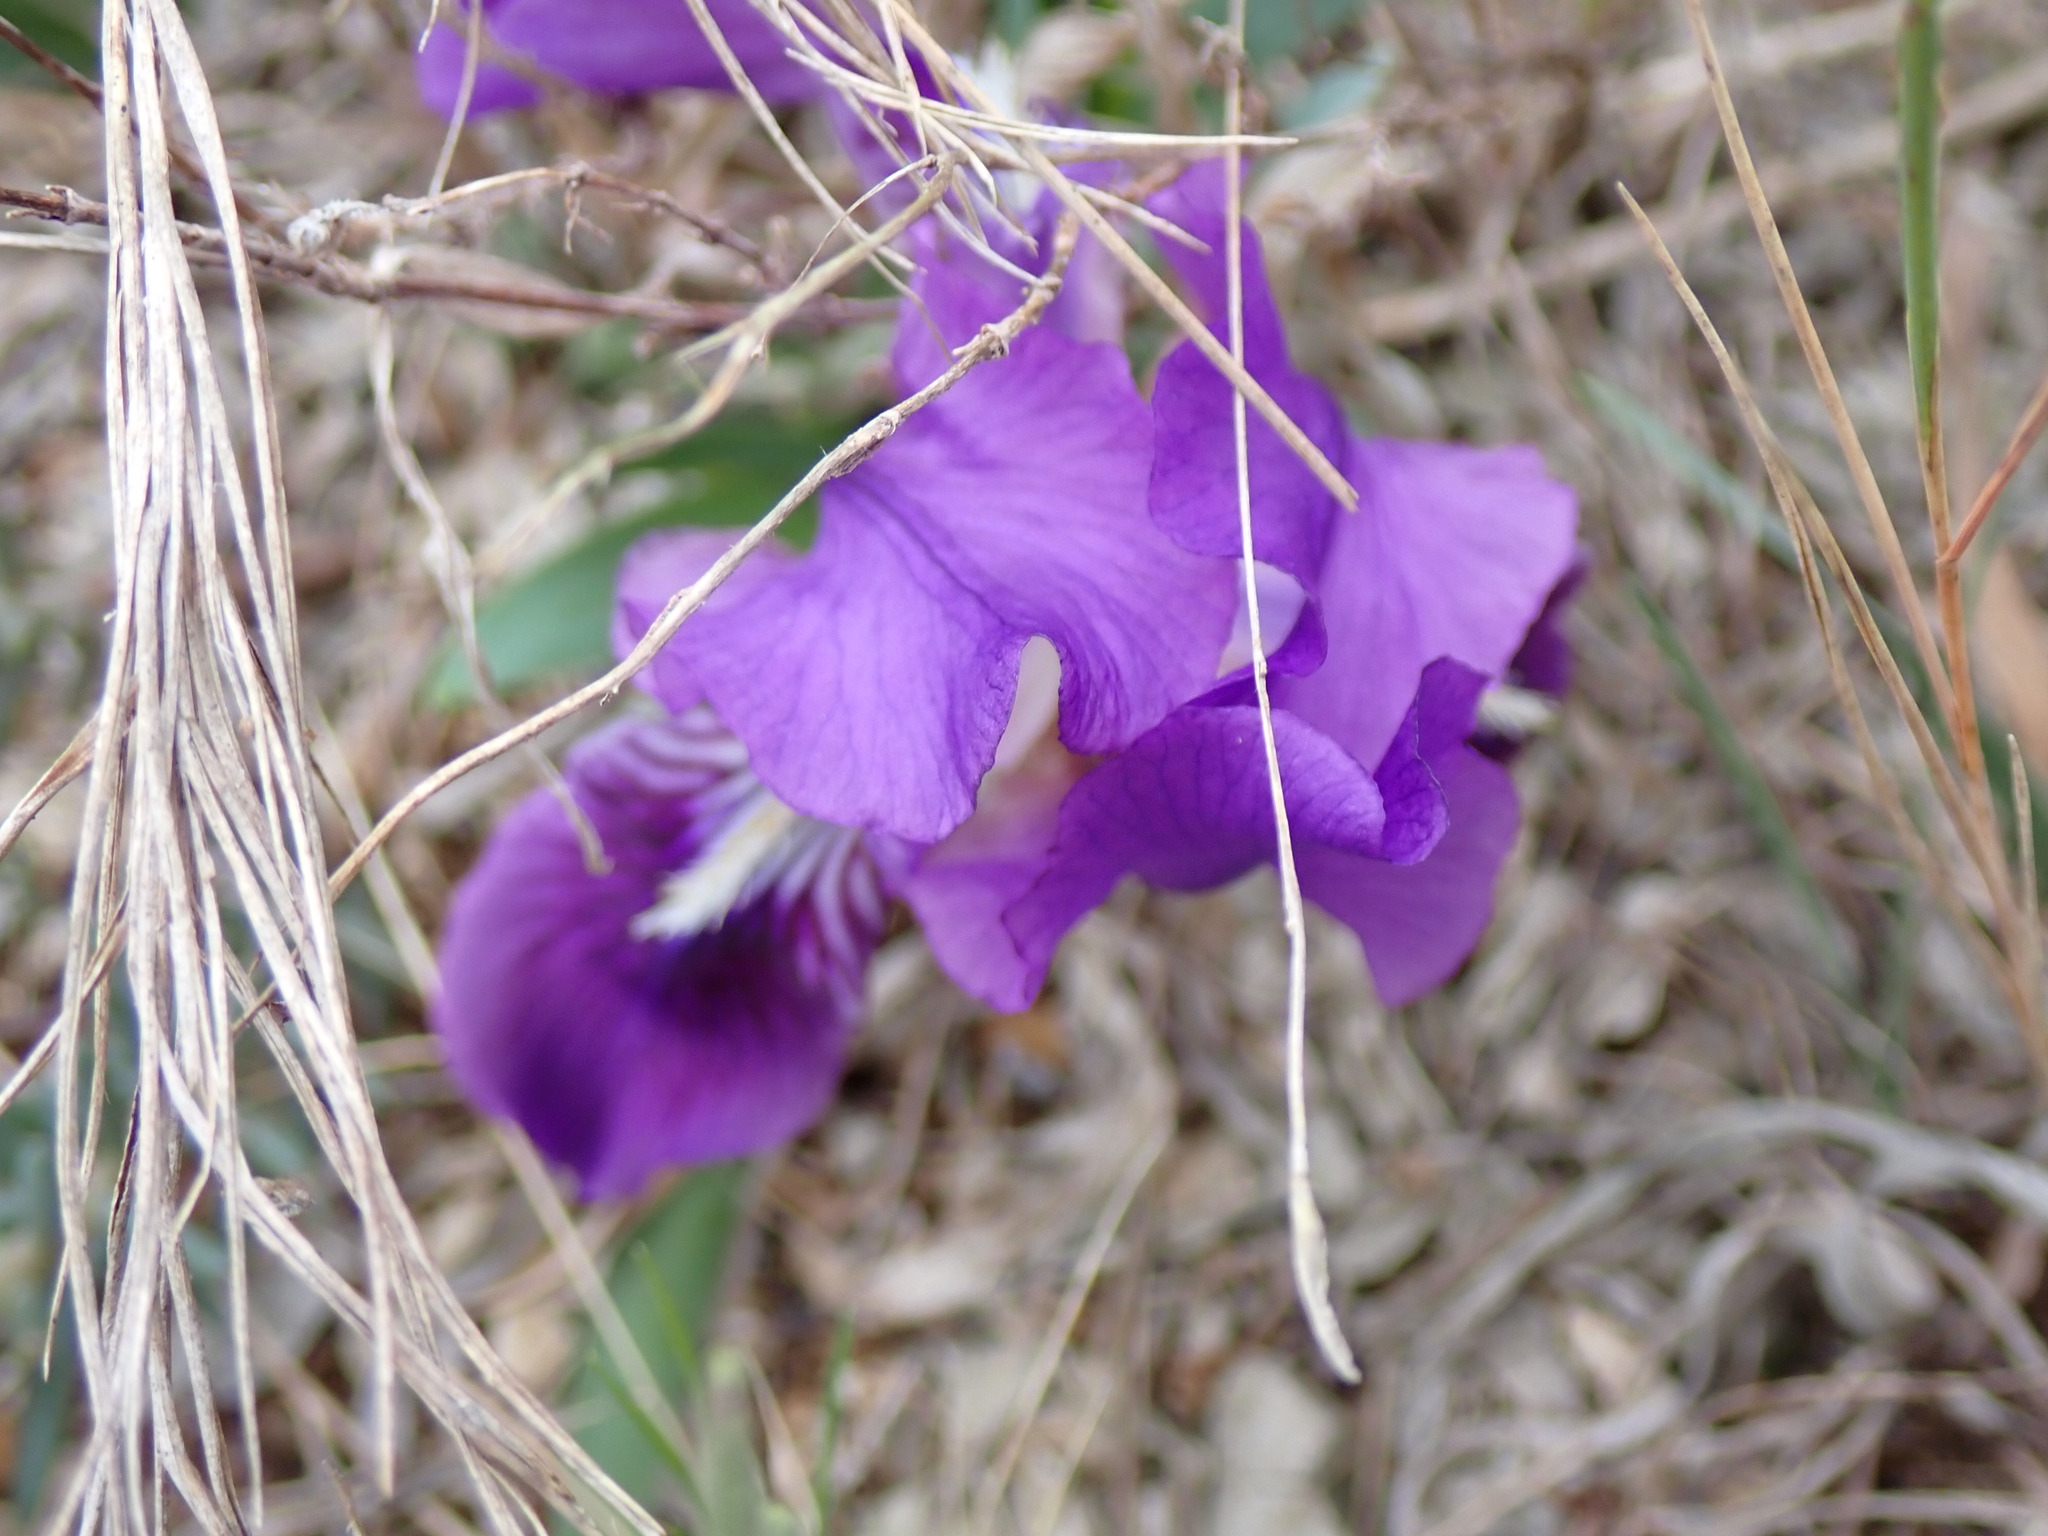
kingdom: Plantae
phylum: Tracheophyta
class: Liliopsida
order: Asparagales
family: Iridaceae
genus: Iris
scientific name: Iris lutescens
